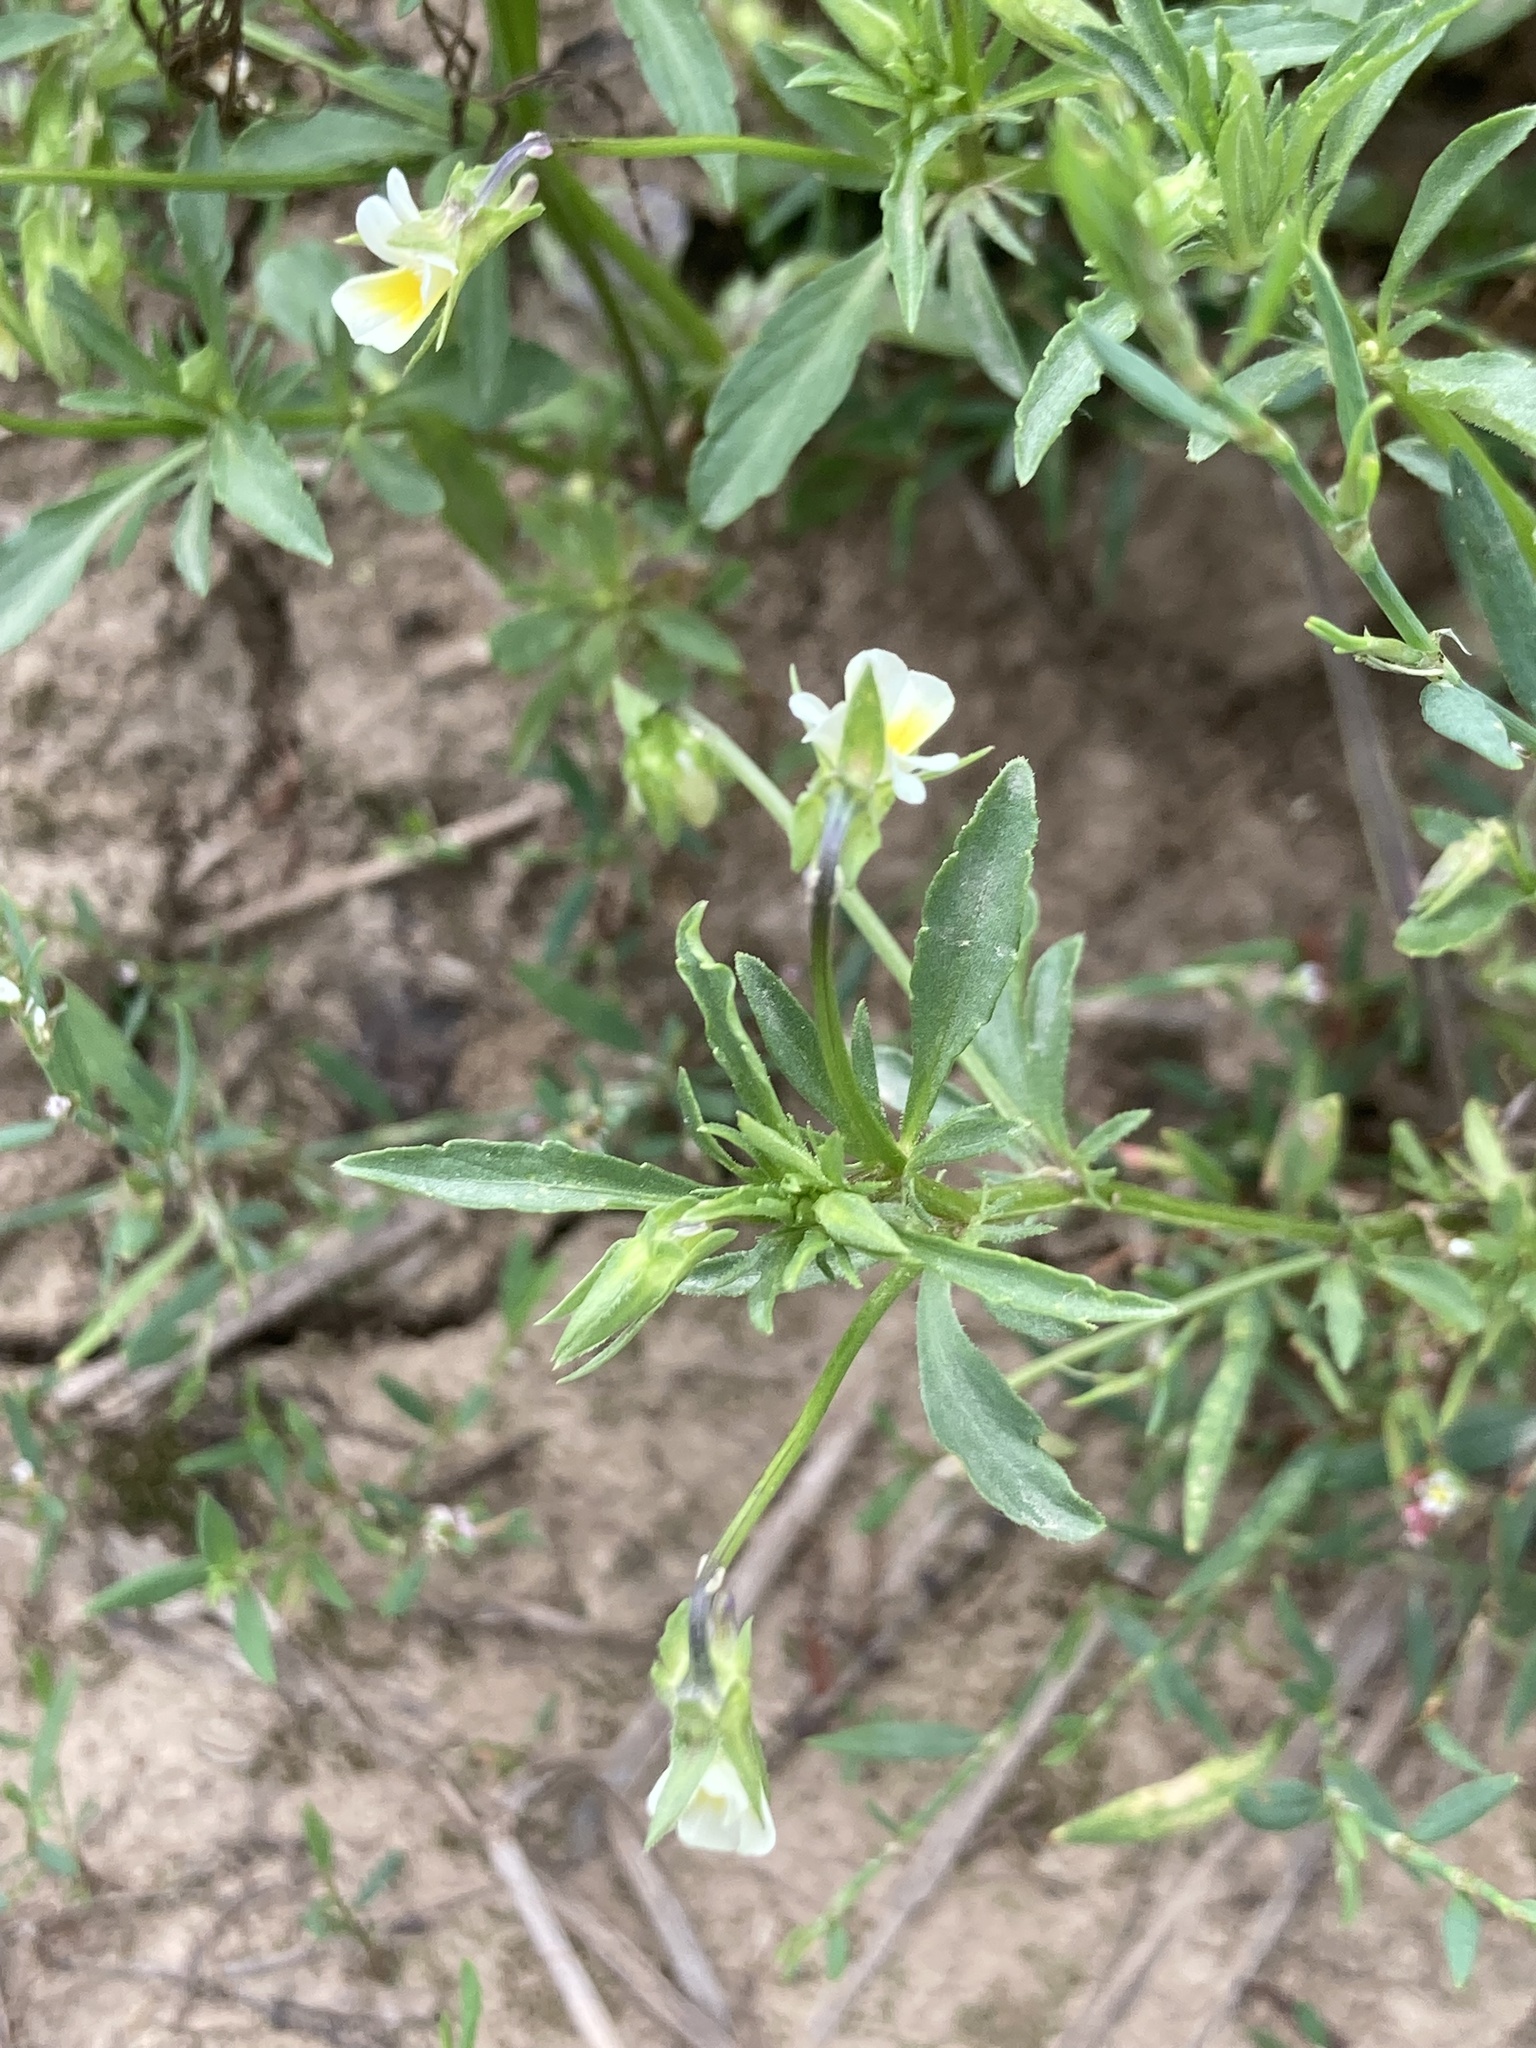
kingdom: Plantae
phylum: Tracheophyta
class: Magnoliopsida
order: Malpighiales
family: Violaceae
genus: Viola
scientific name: Viola arvensis
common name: Field pansy
